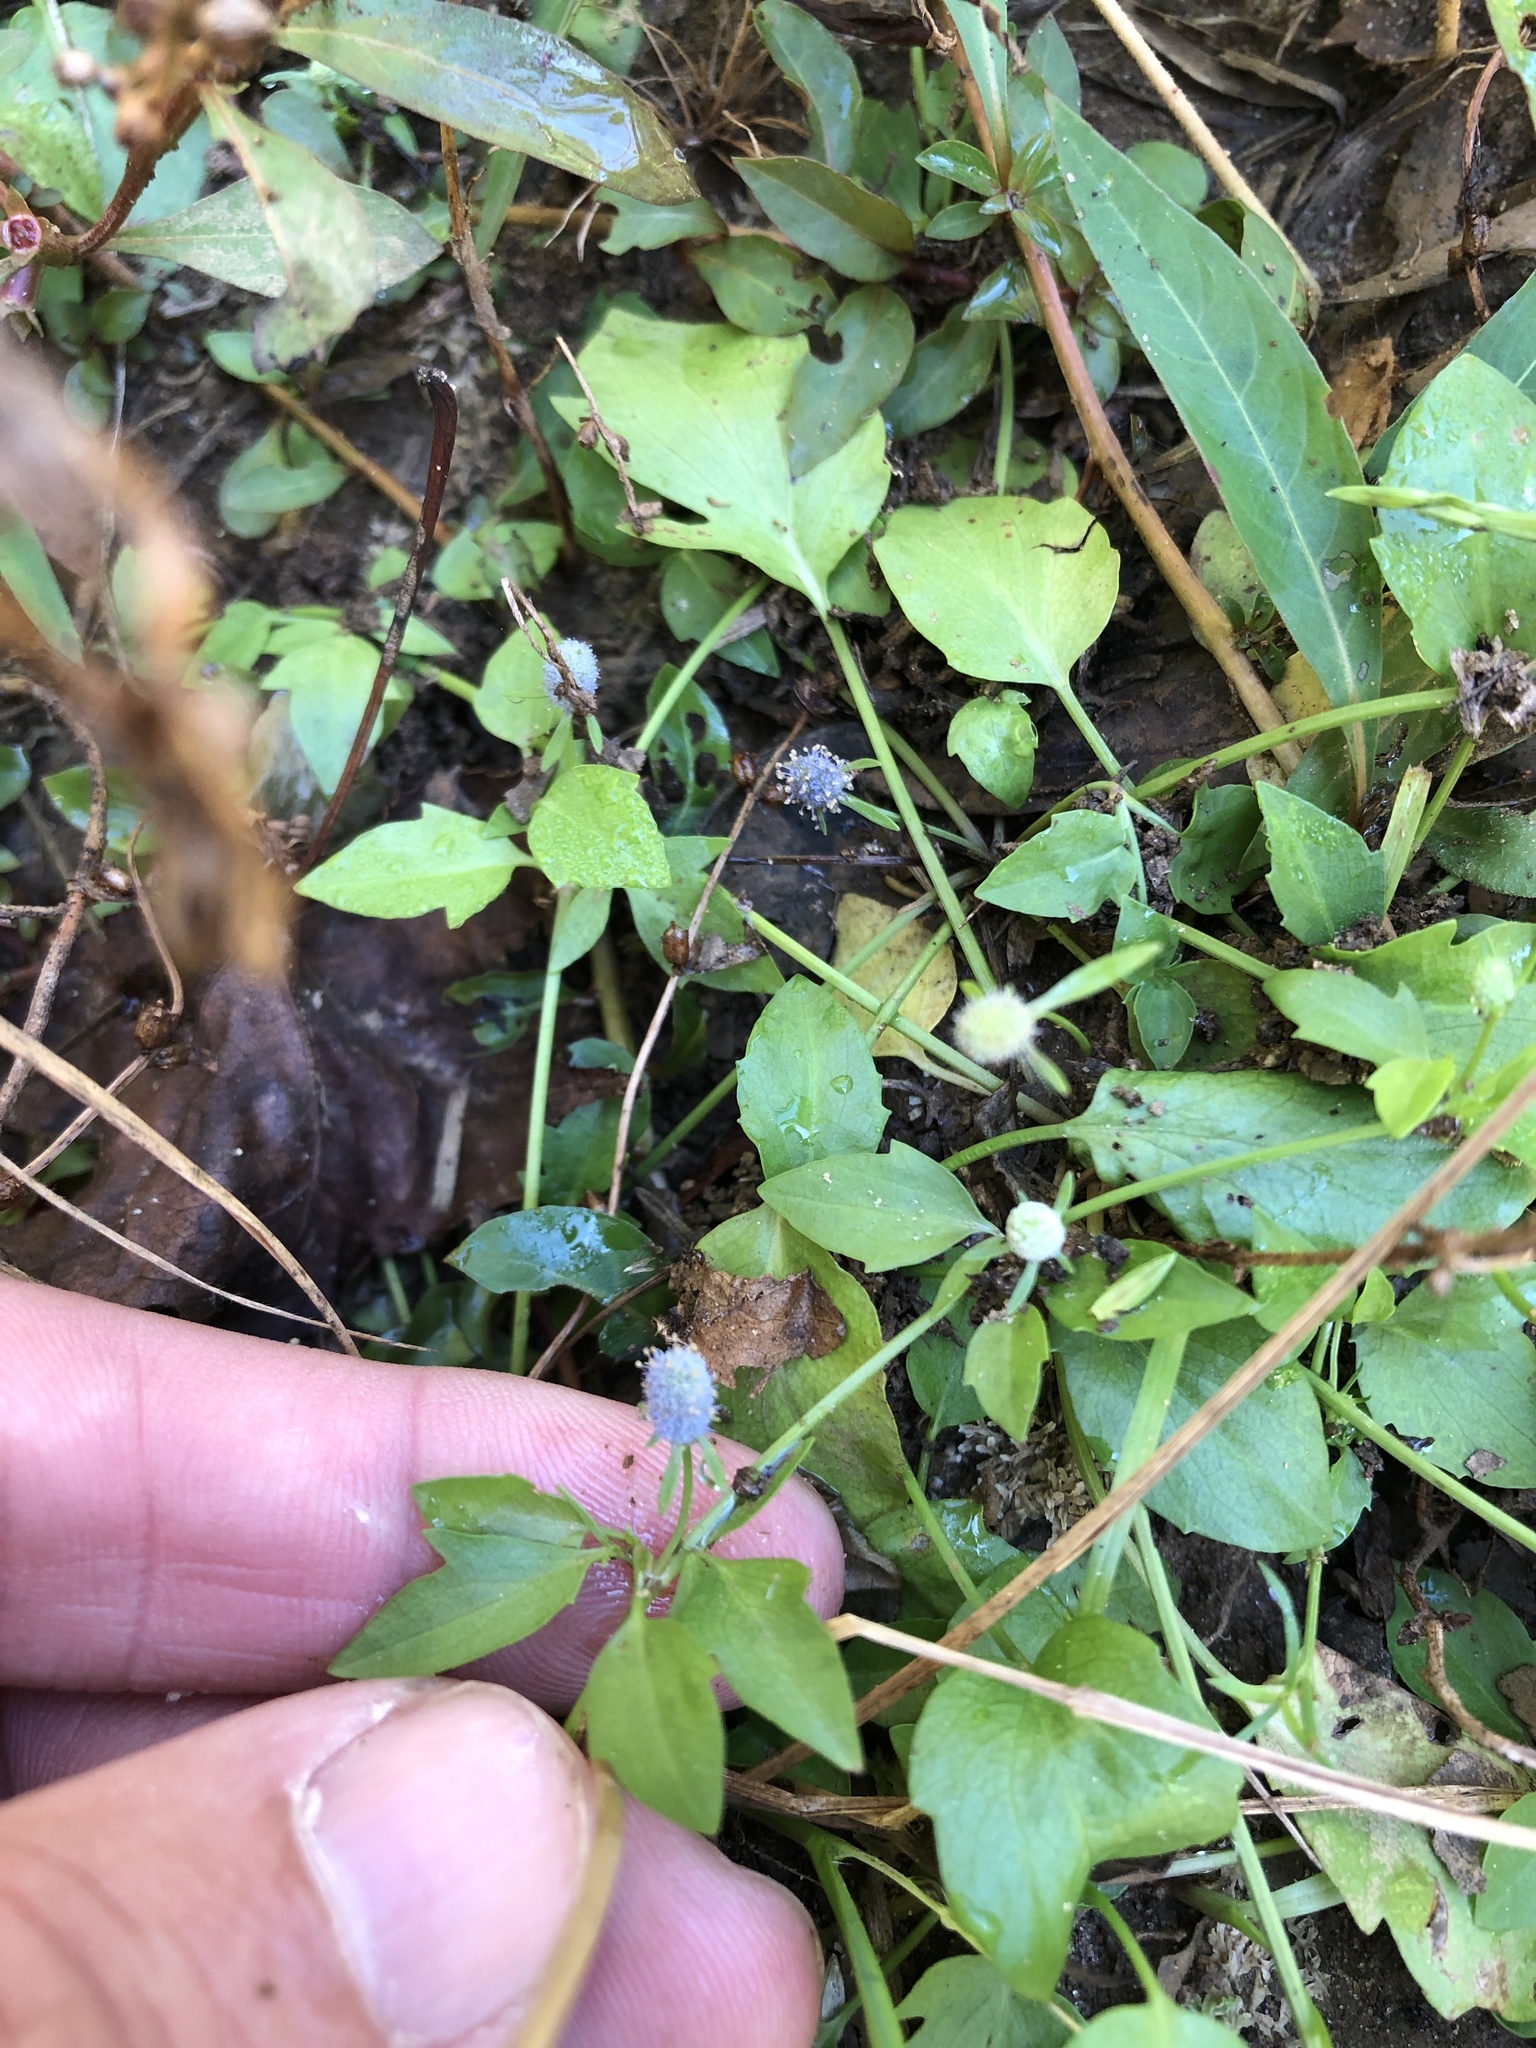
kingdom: Plantae
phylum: Tracheophyta
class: Magnoliopsida
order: Apiales
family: Apiaceae
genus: Eryngium
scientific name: Eryngium prostratum
